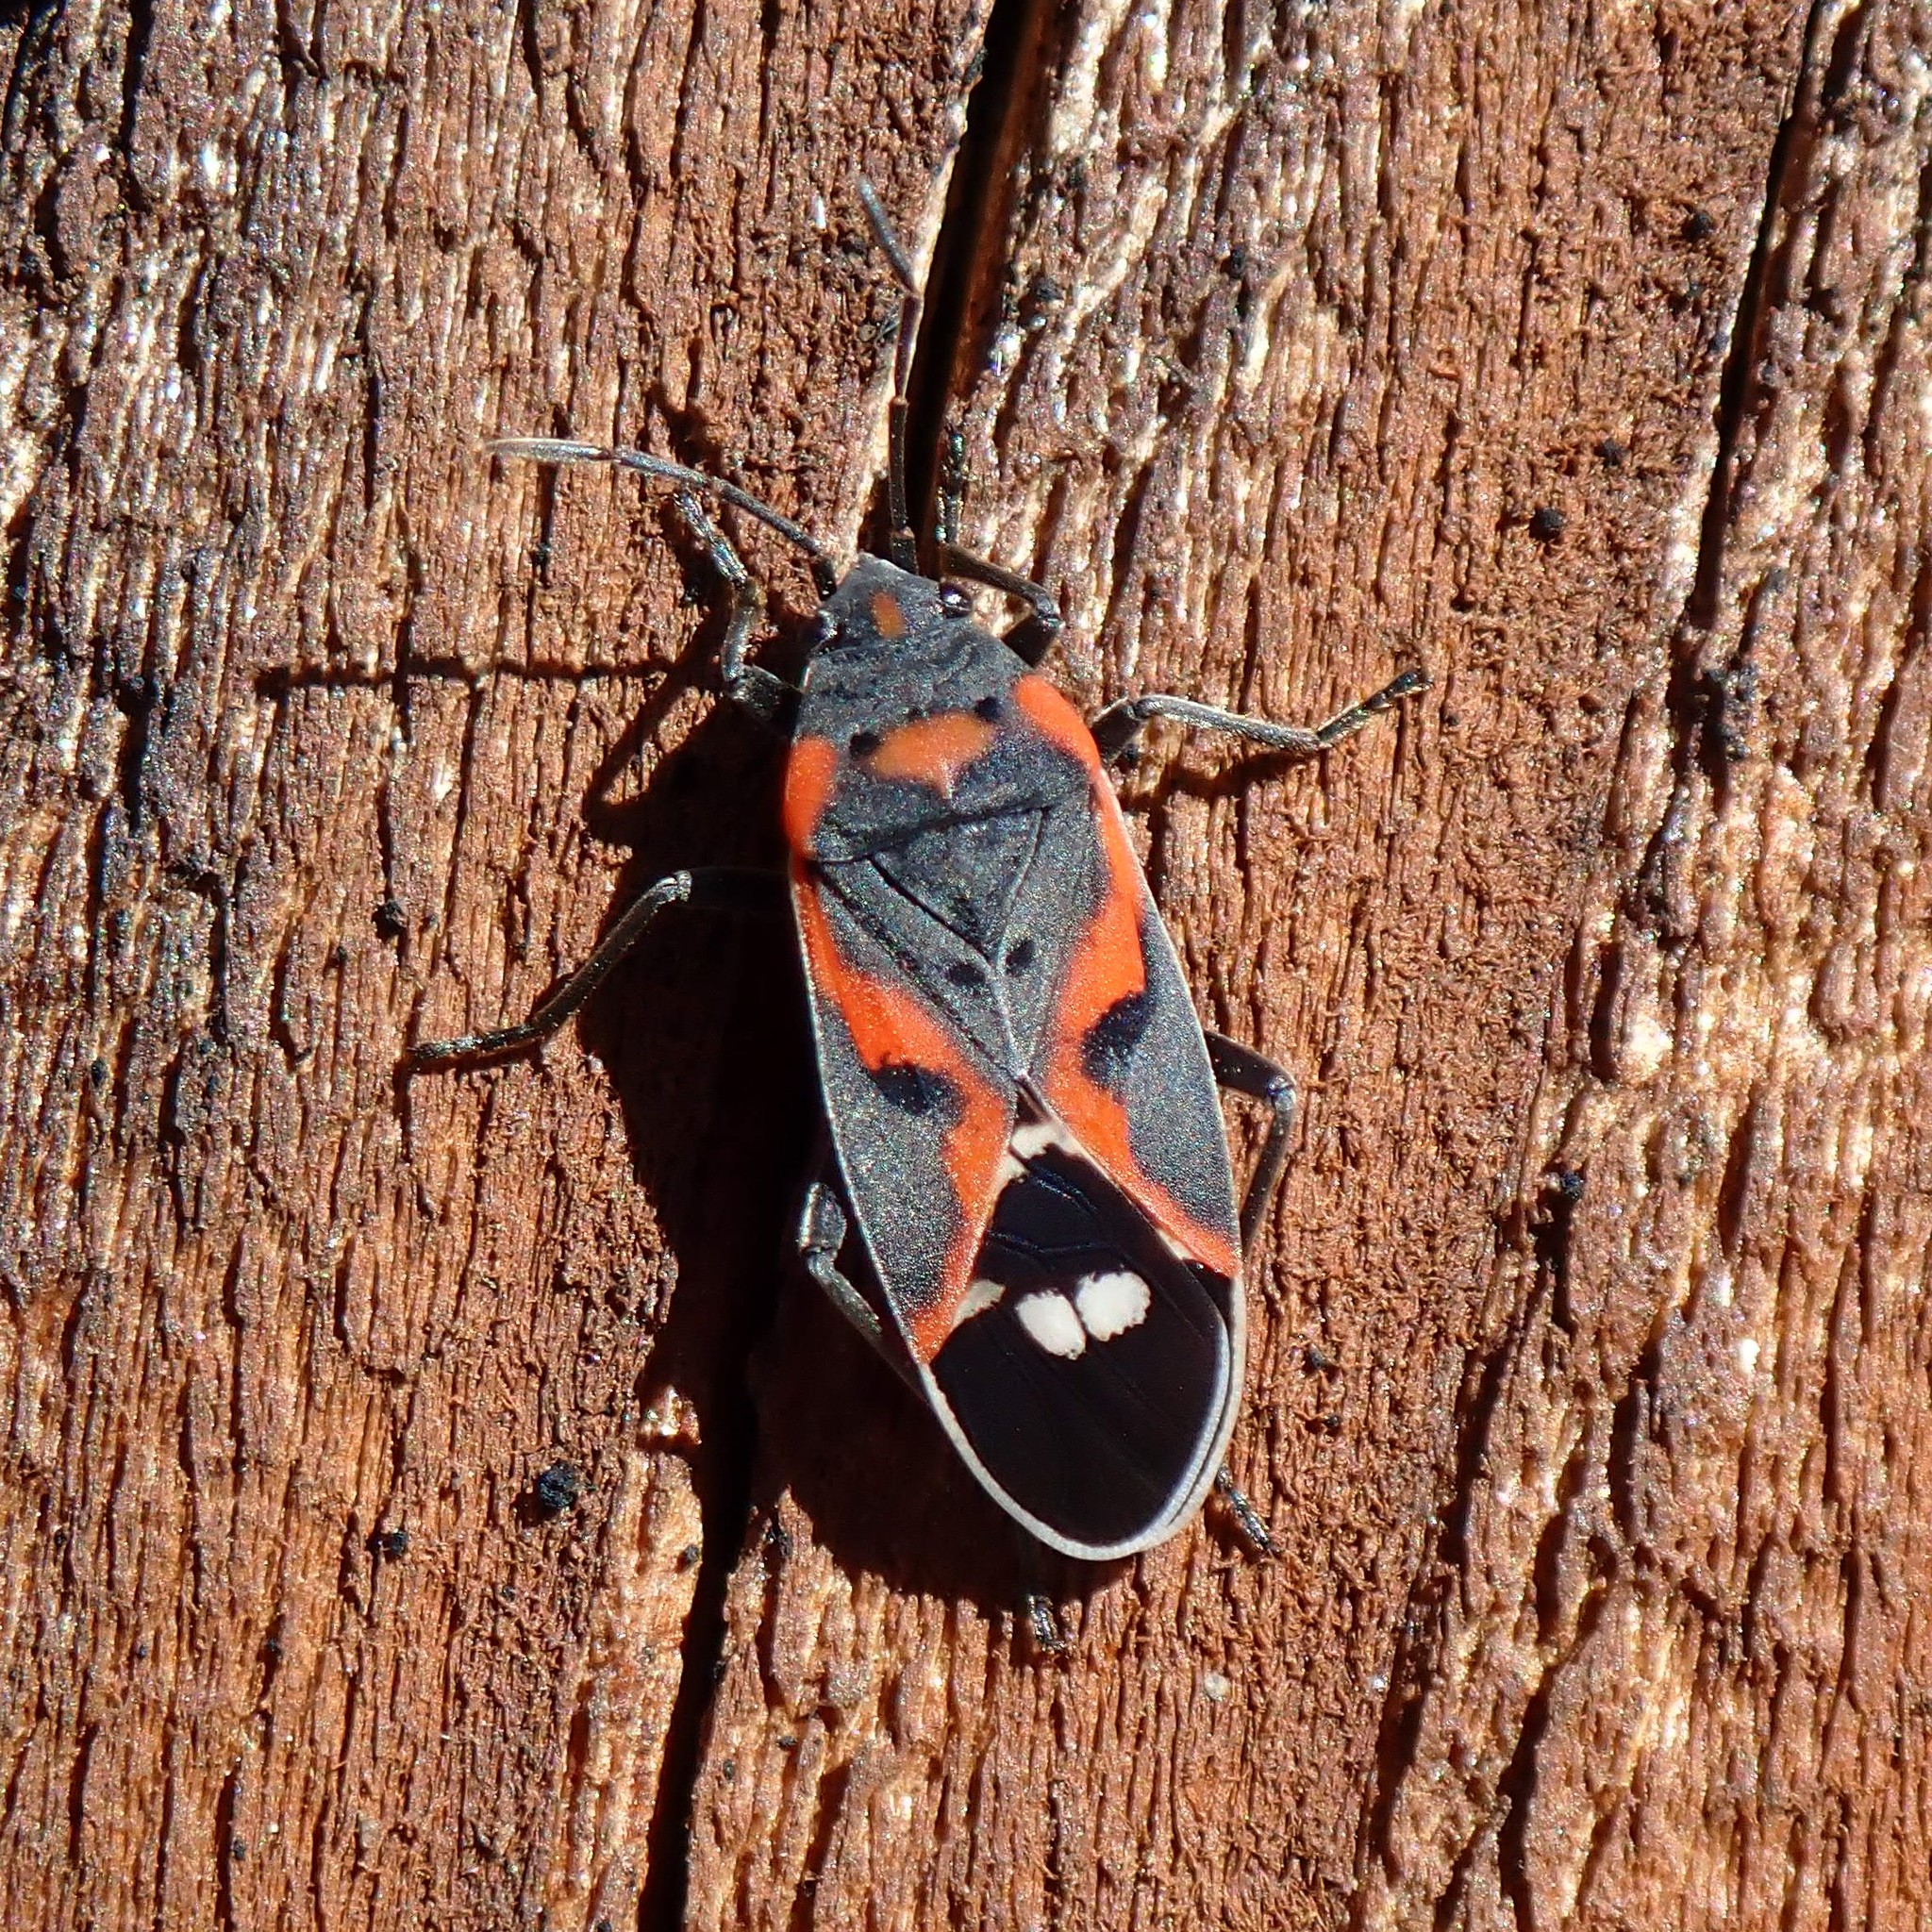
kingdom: Animalia
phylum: Arthropoda
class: Insecta
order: Hemiptera
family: Lygaeidae
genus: Lygaeus
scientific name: Lygaeus kalmii
